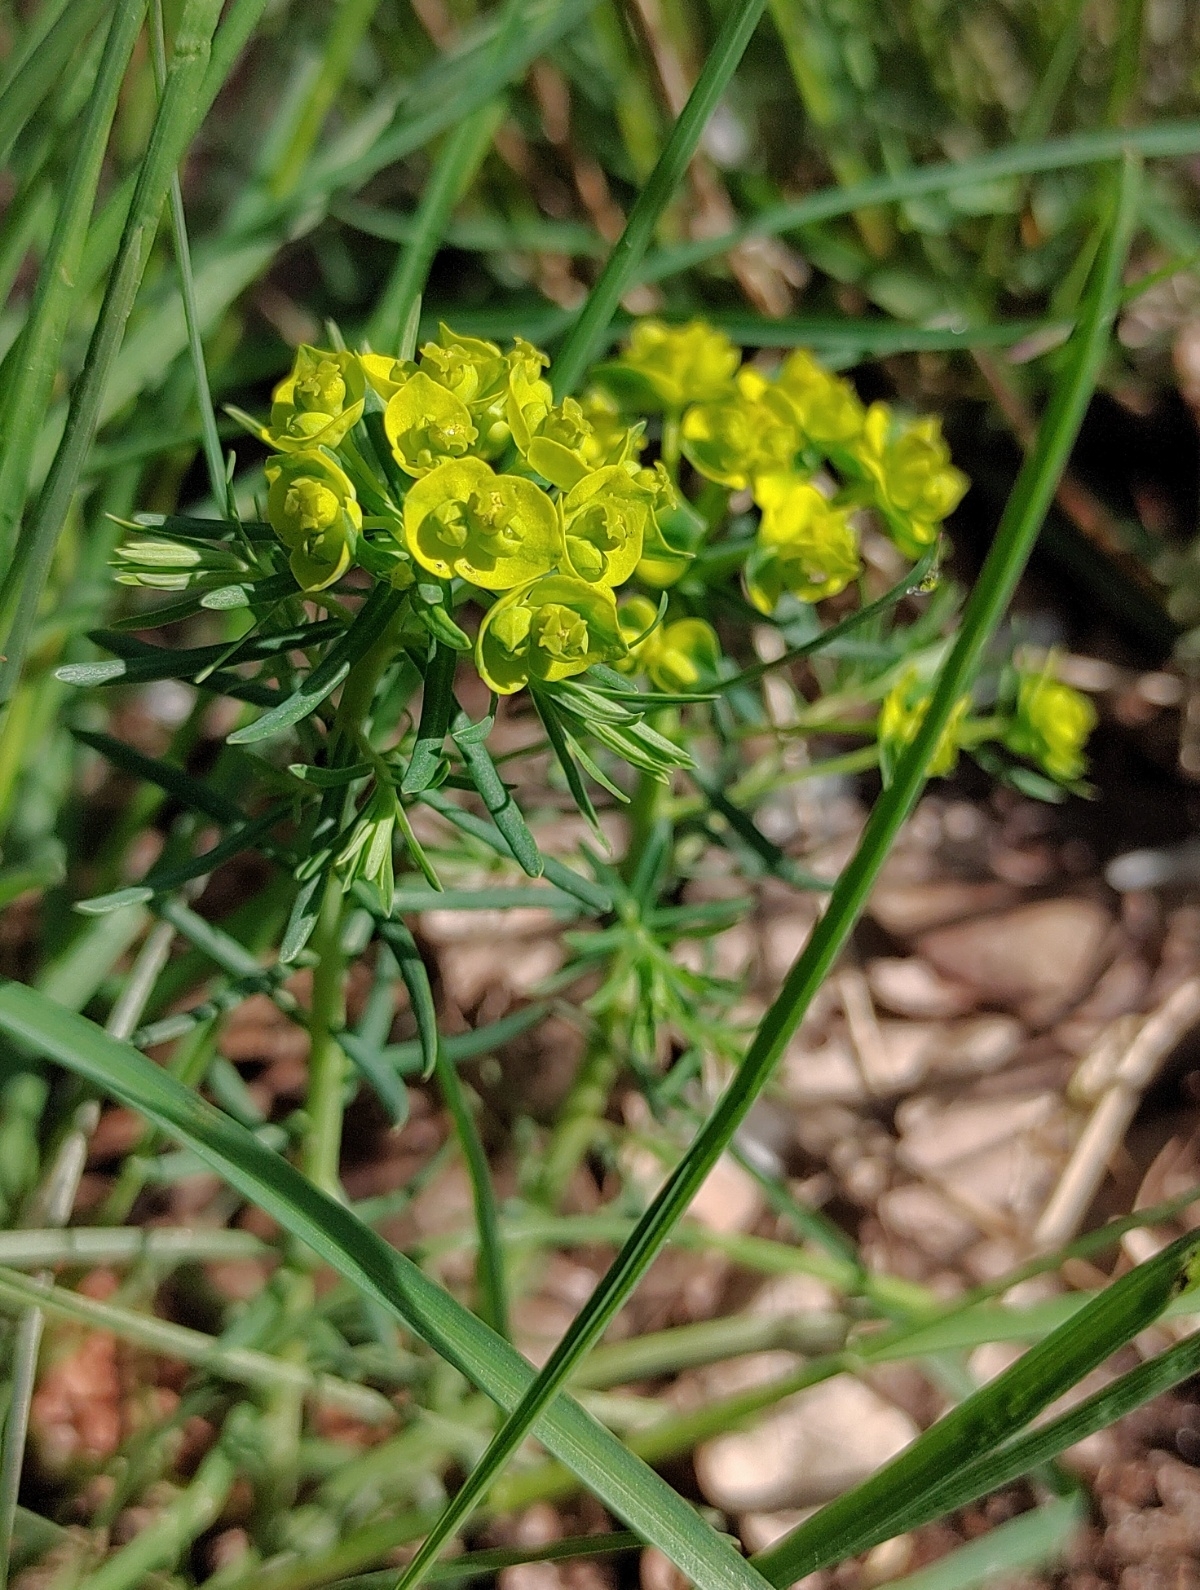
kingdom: Plantae
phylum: Tracheophyta
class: Magnoliopsida
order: Malpighiales
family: Euphorbiaceae
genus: Euphorbia
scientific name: Euphorbia cyparissias
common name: Cypress spurge
